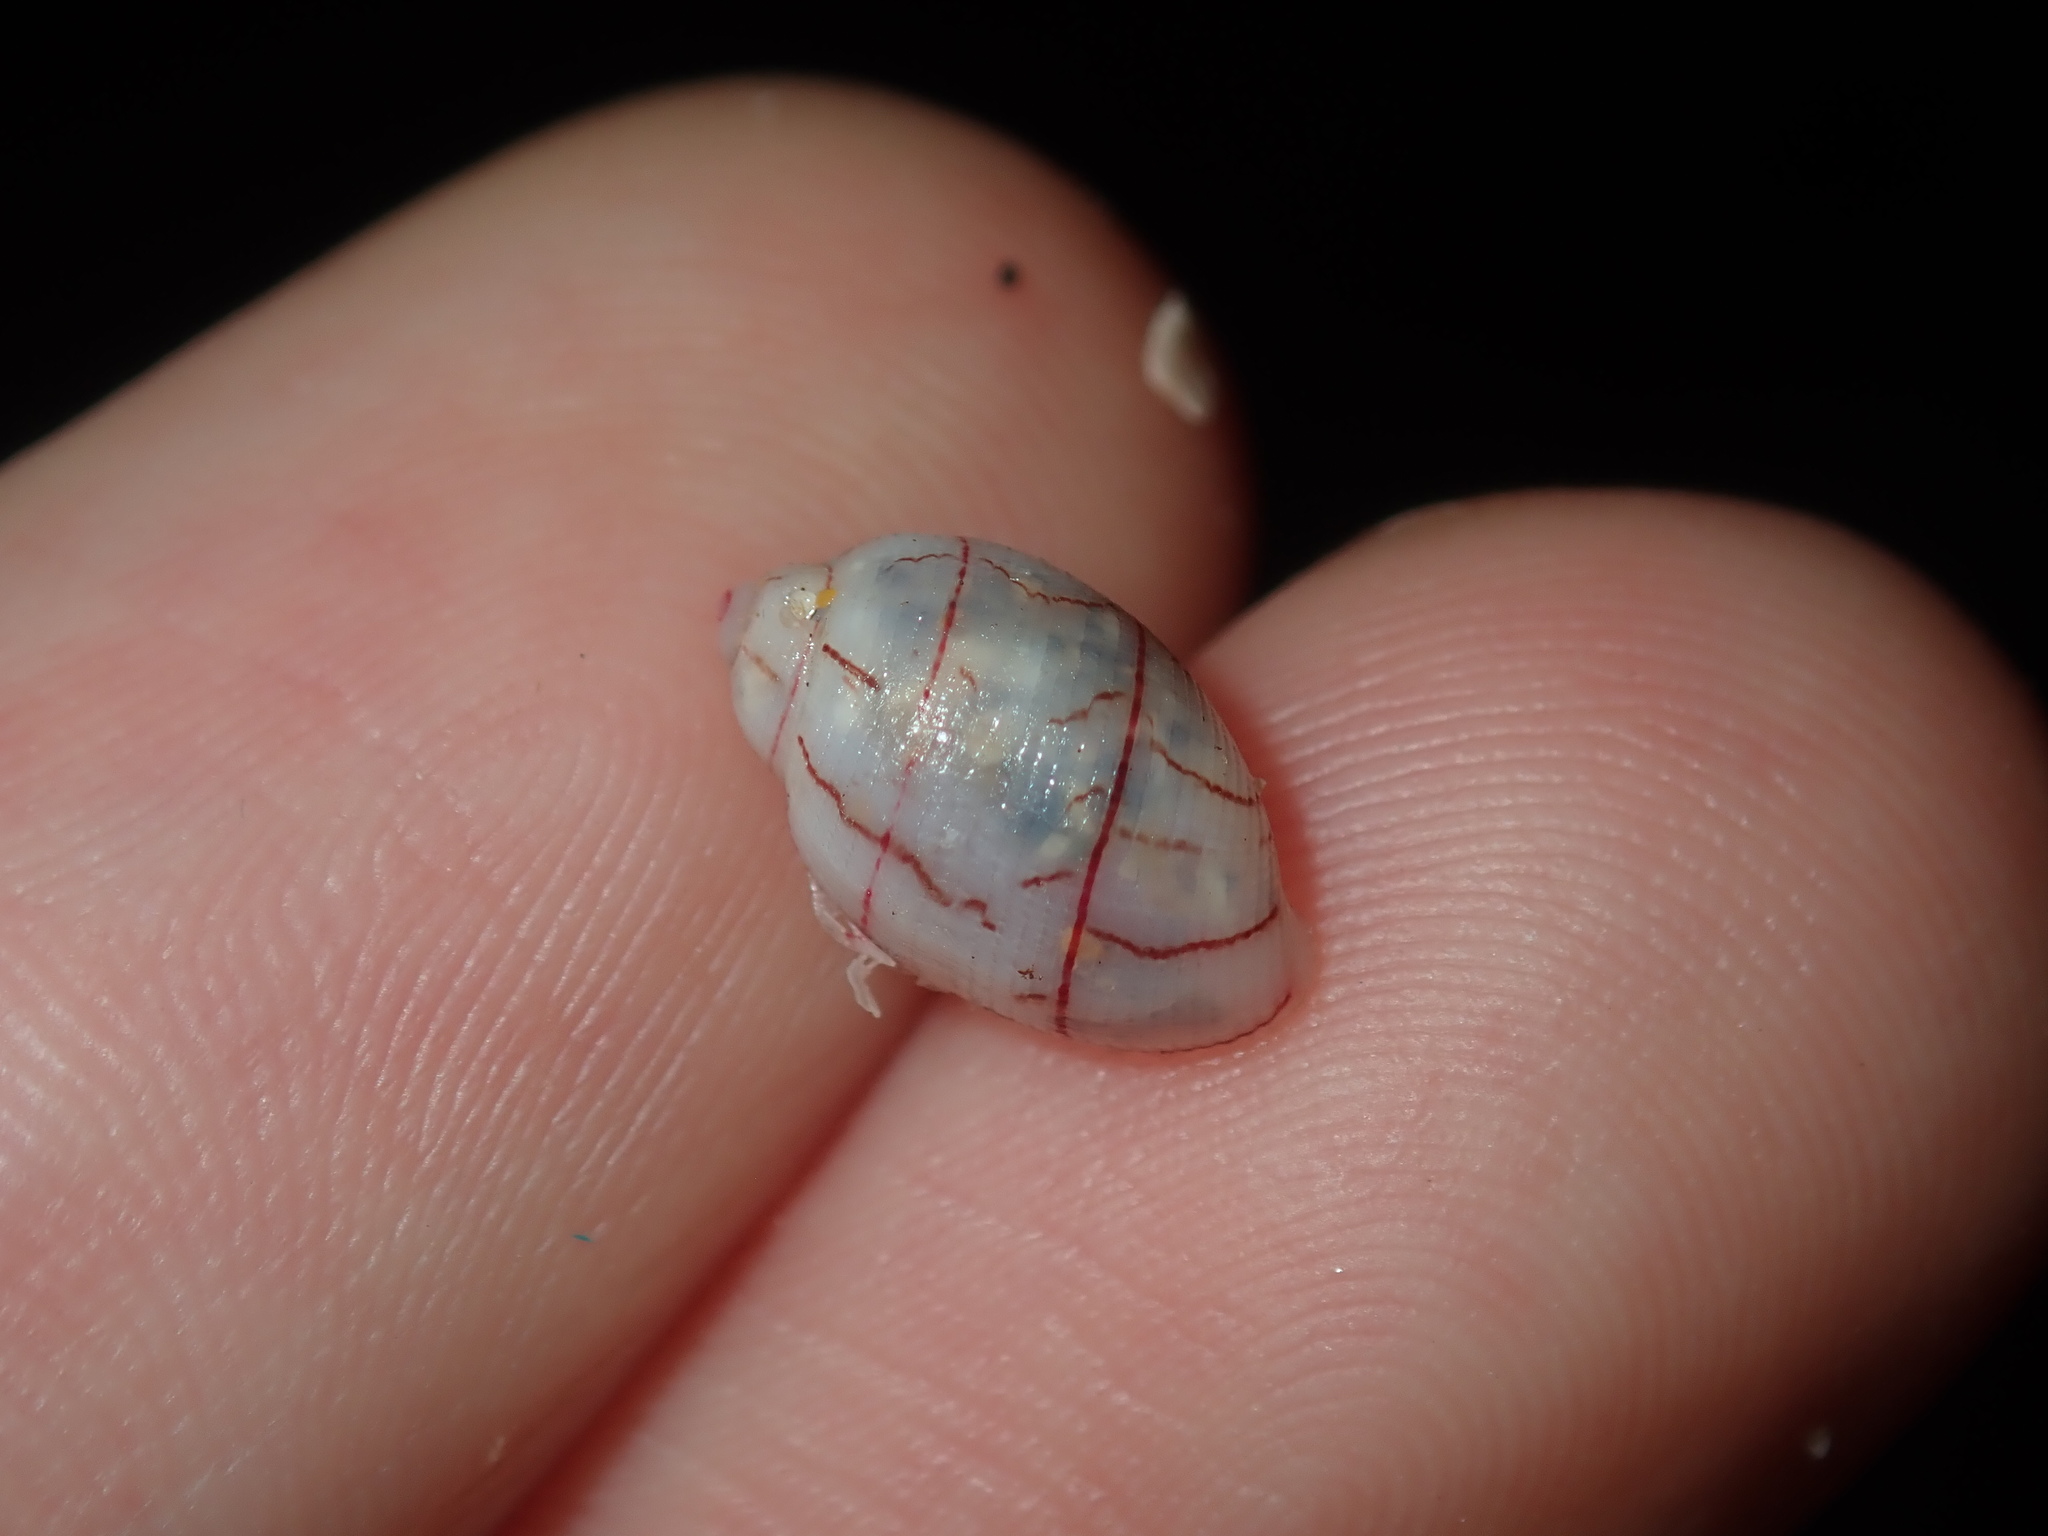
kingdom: Animalia
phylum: Mollusca
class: Gastropoda
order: Cephalaspidea
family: Aplustridae
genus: Bullina
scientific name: Bullina lineata
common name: Lined bubble snail
